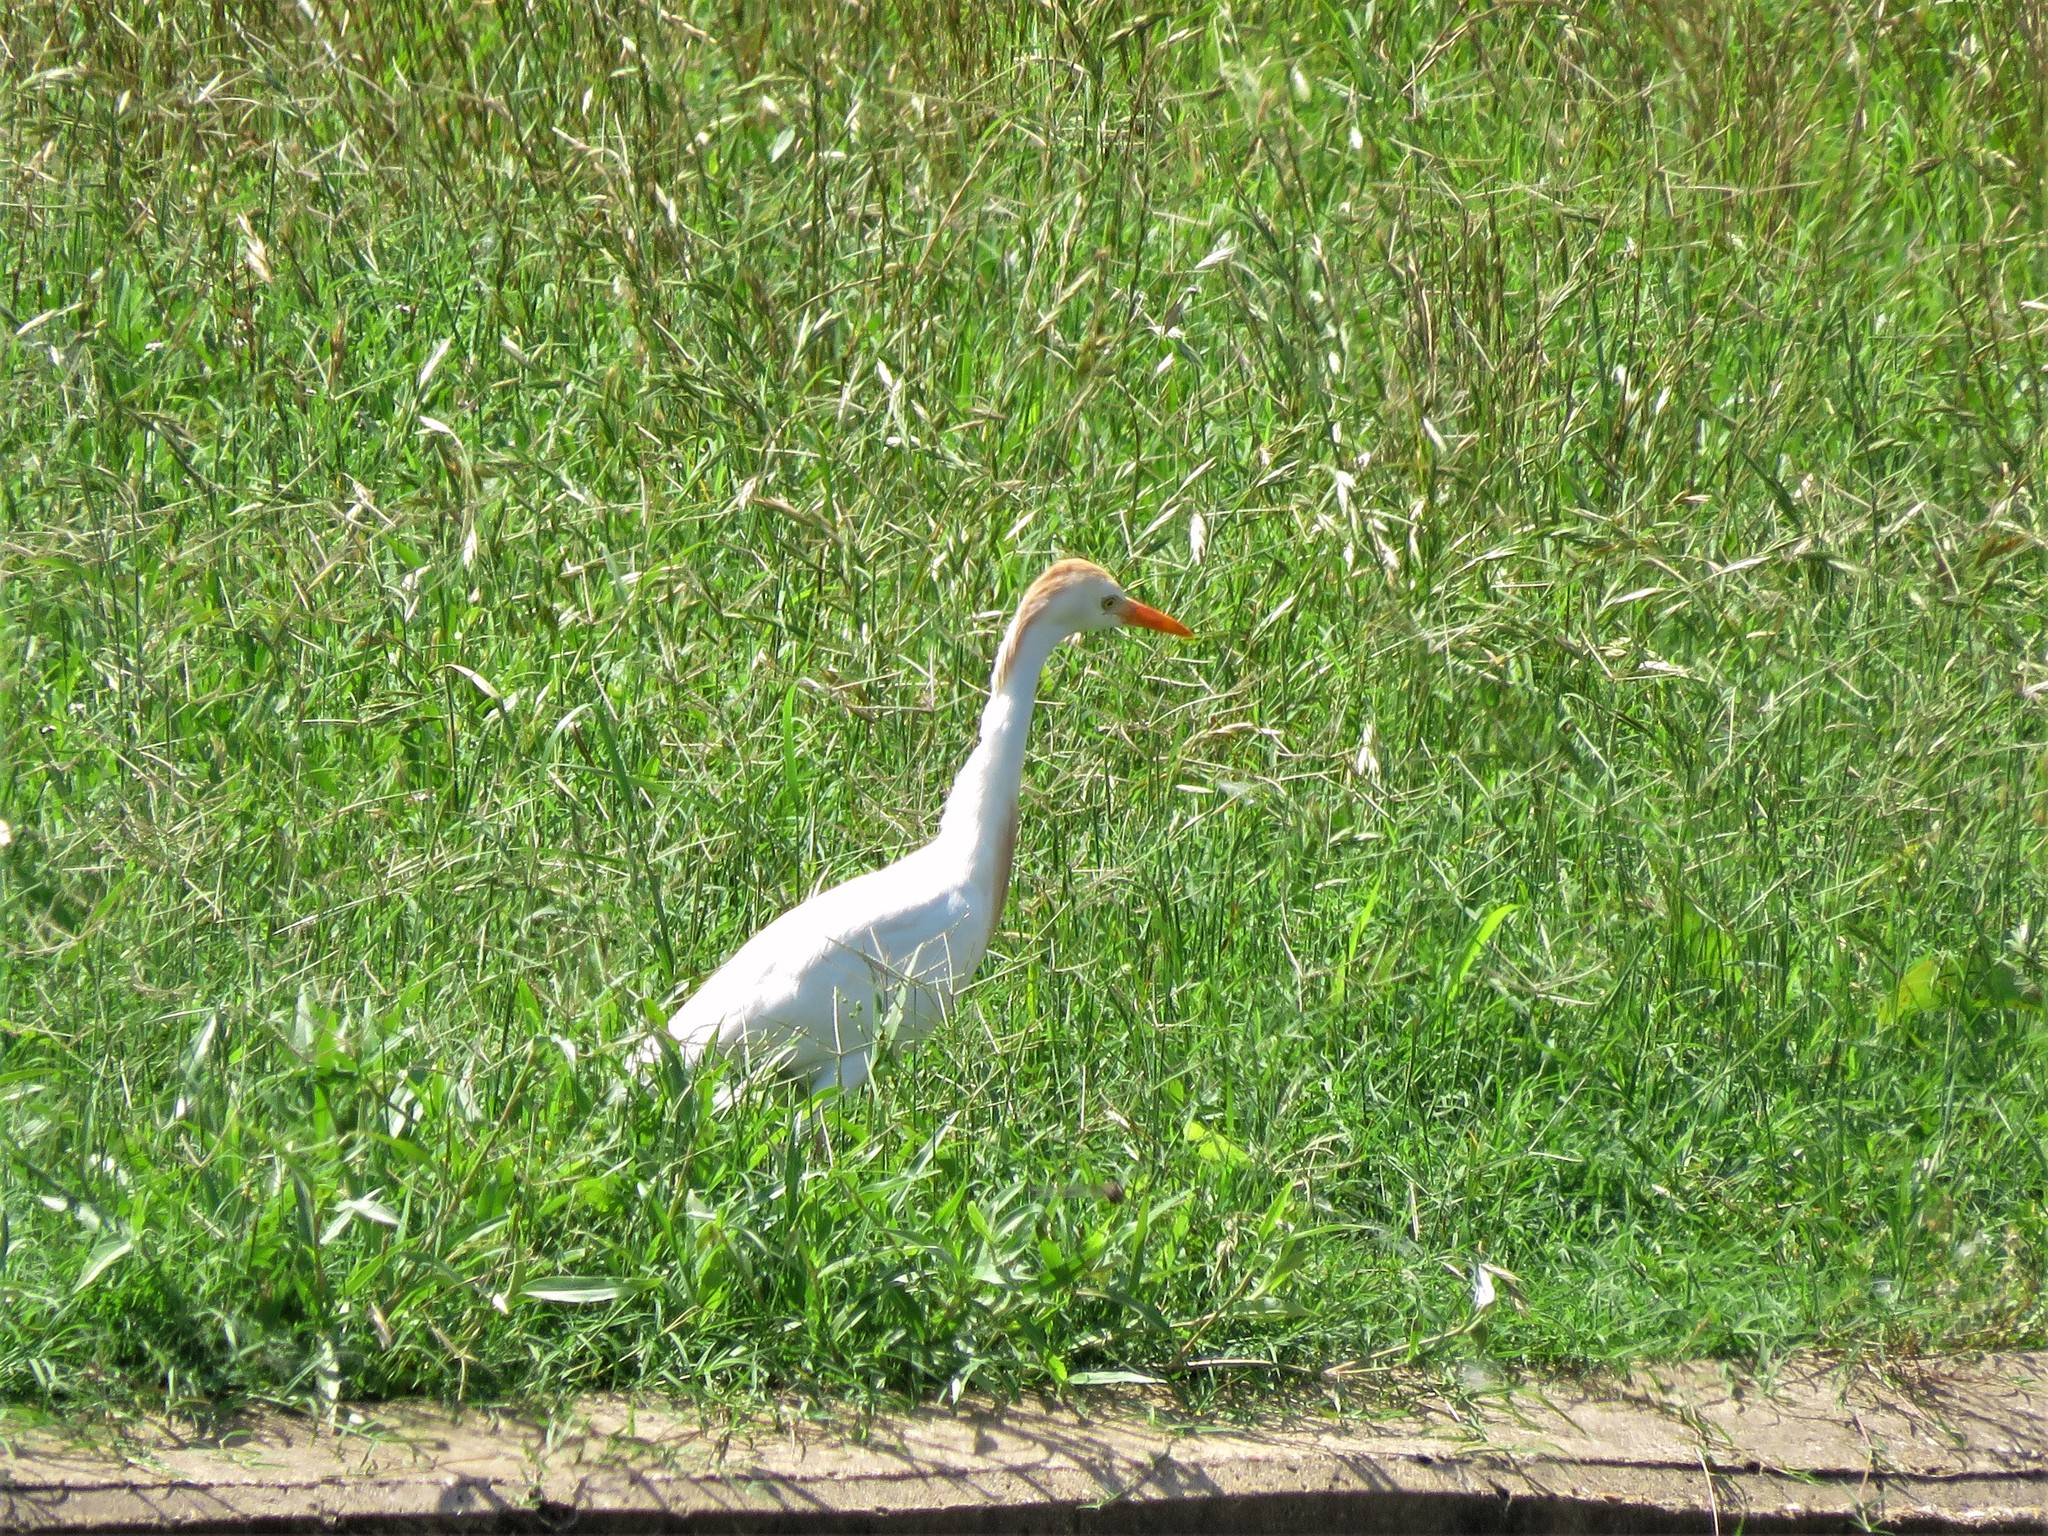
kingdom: Animalia
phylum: Chordata
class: Aves
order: Pelecaniformes
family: Ardeidae
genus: Bubulcus
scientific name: Bubulcus ibis
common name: Cattle egret
